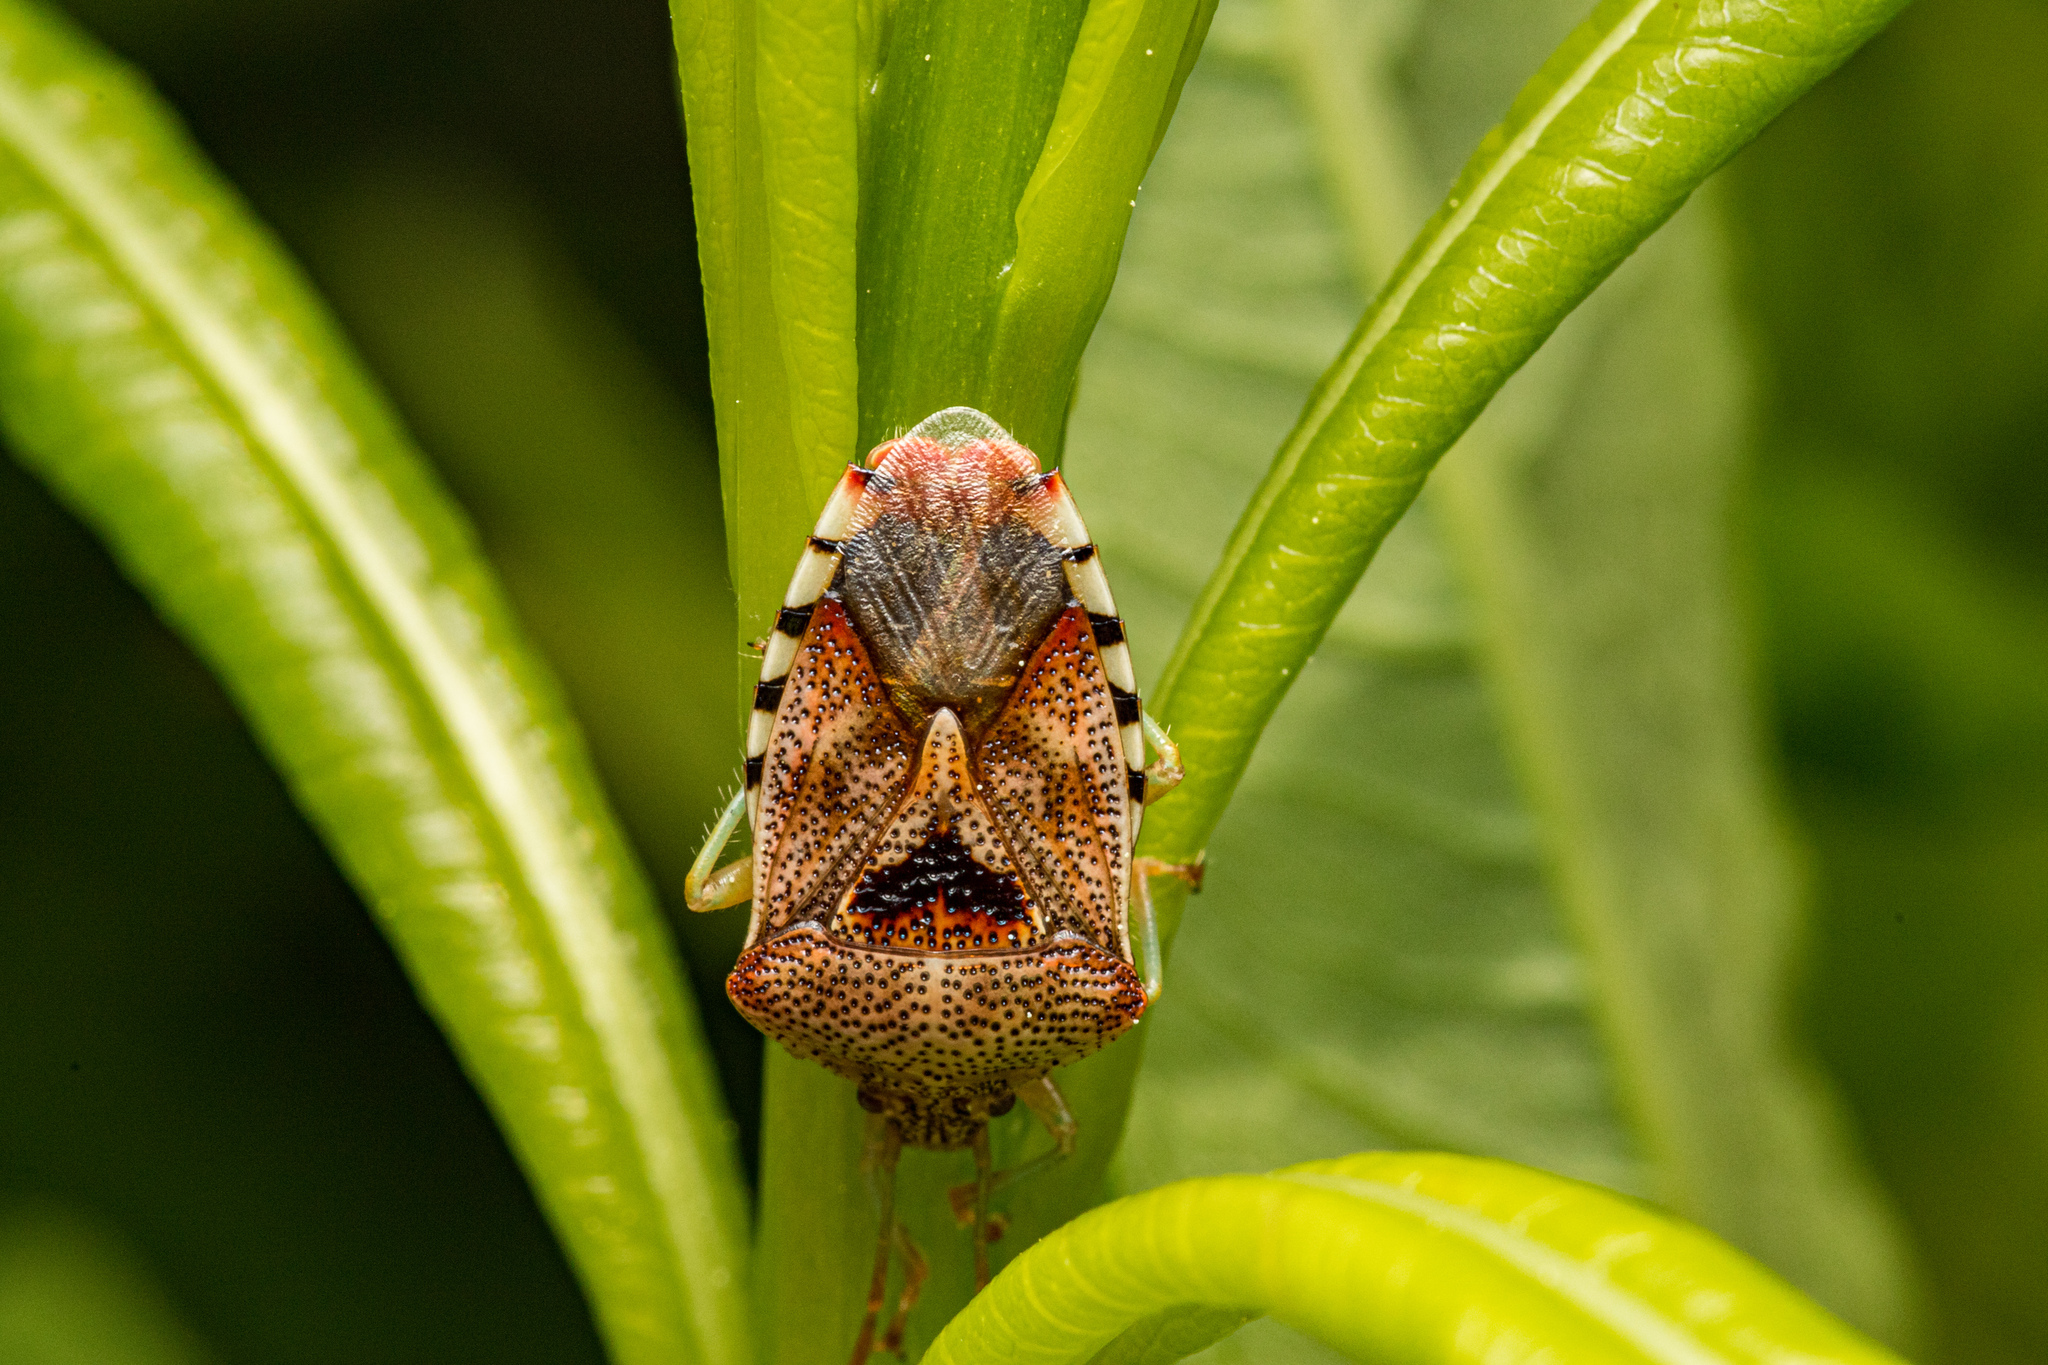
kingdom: Animalia
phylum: Arthropoda
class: Insecta
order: Hemiptera
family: Acanthosomatidae
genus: Elasmucha
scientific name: Elasmucha grisea
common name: Parent bug
